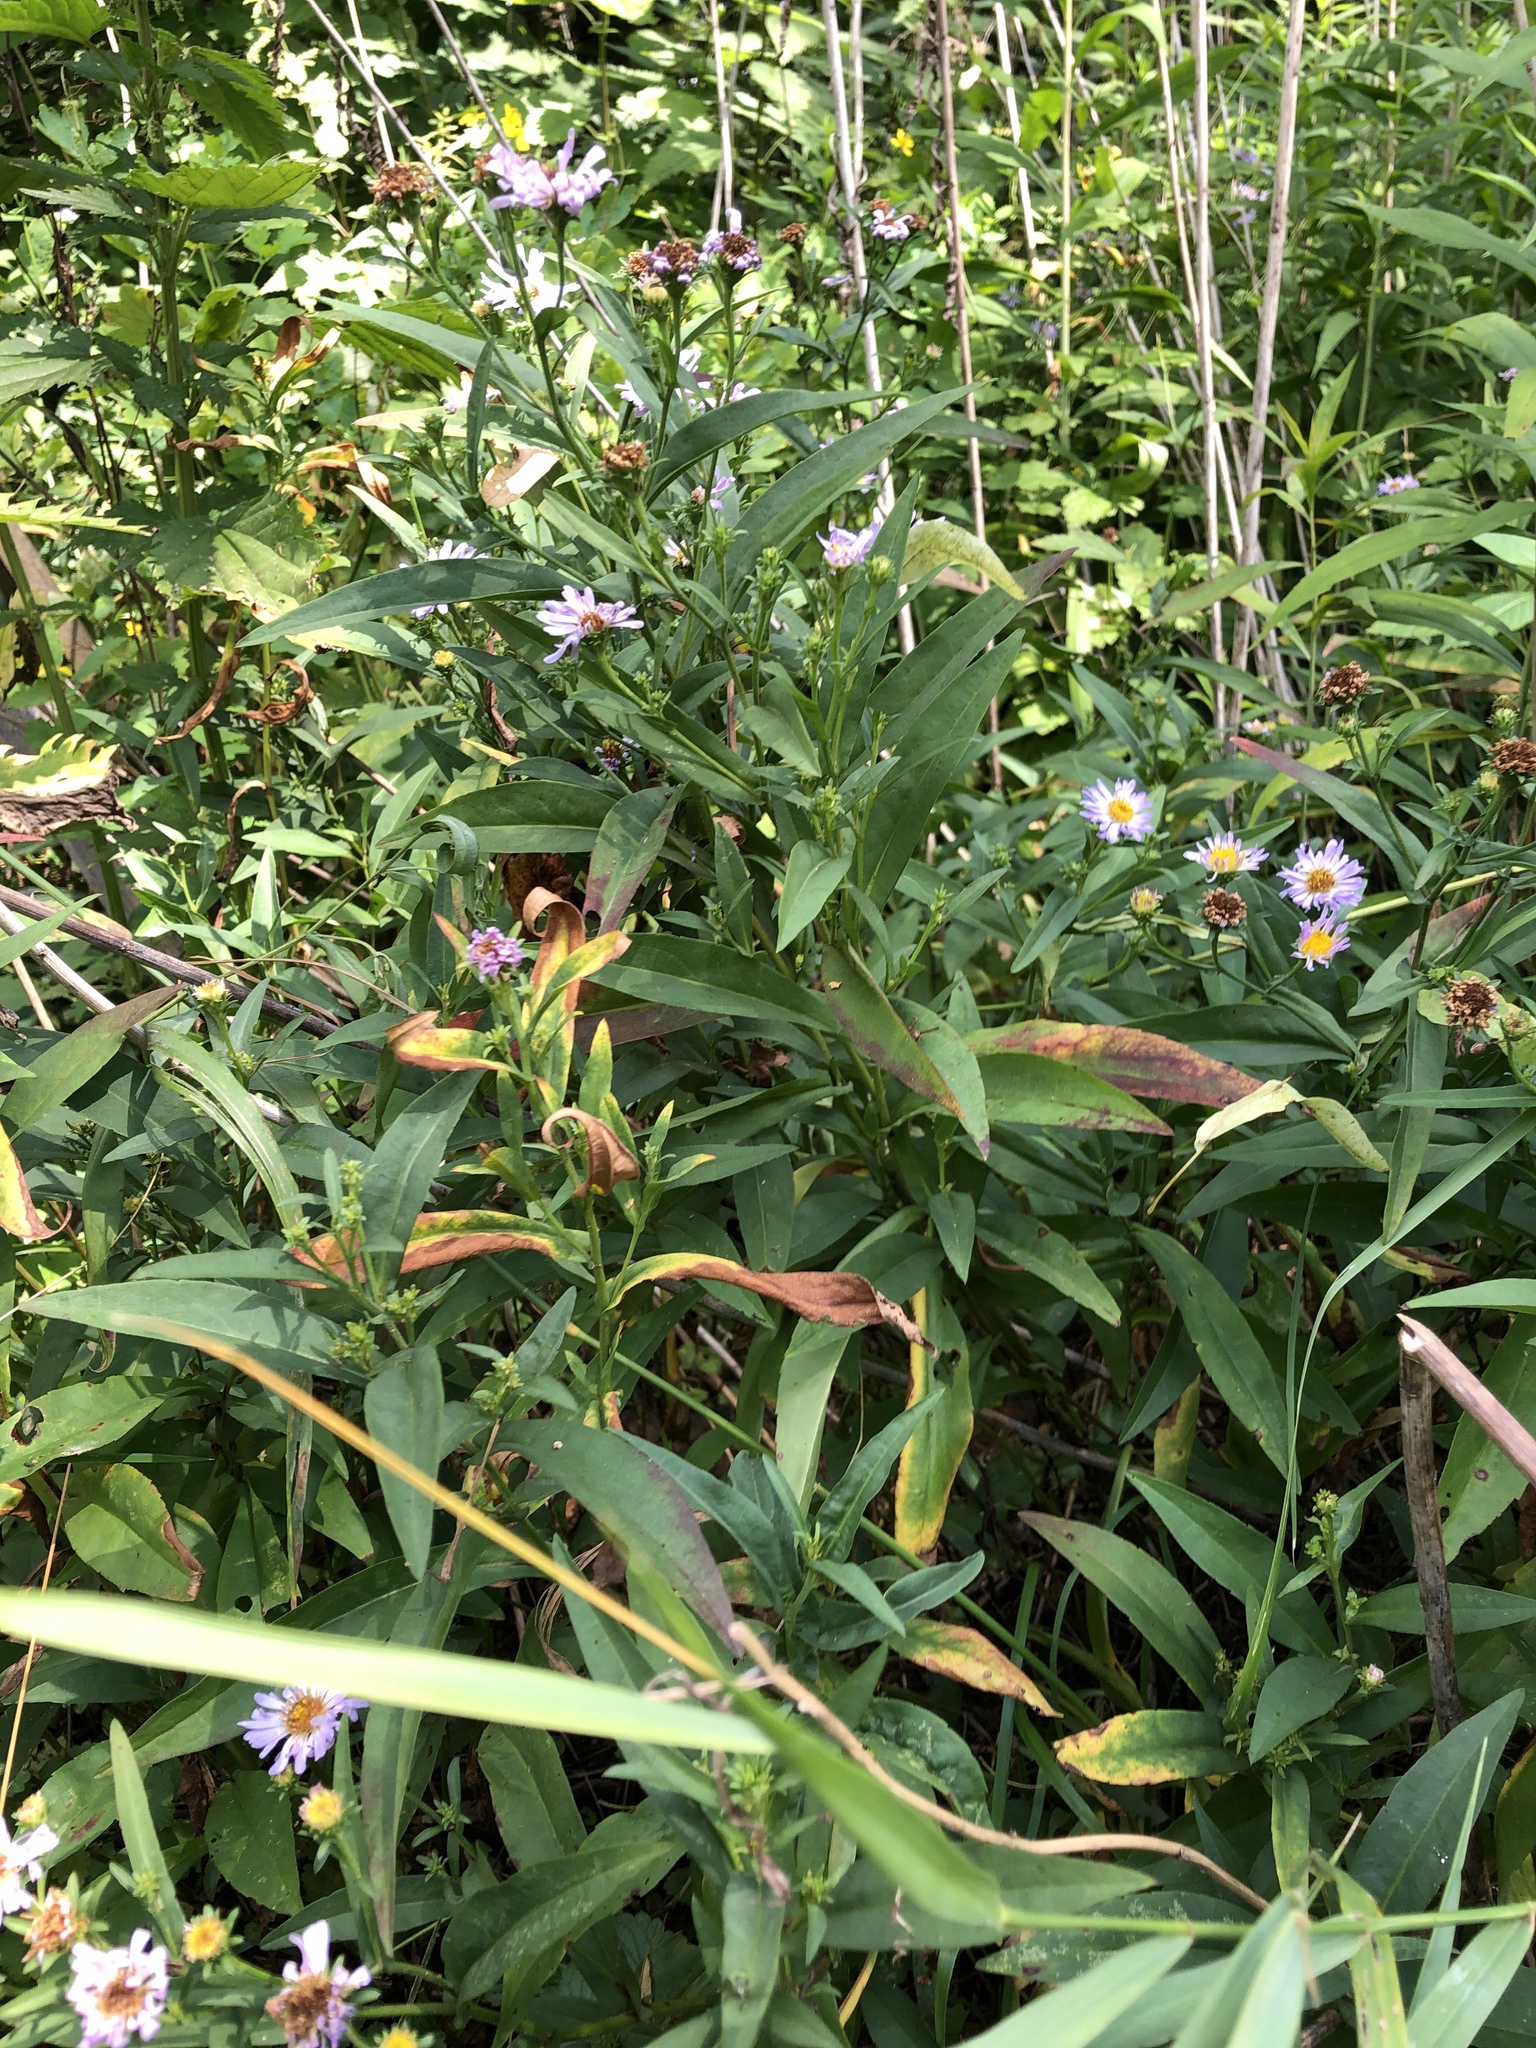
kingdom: Plantae
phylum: Tracheophyta
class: Magnoliopsida
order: Asterales
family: Asteraceae
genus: Symphyotrichum
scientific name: Symphyotrichum salignum
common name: Common michaelmas daisy
